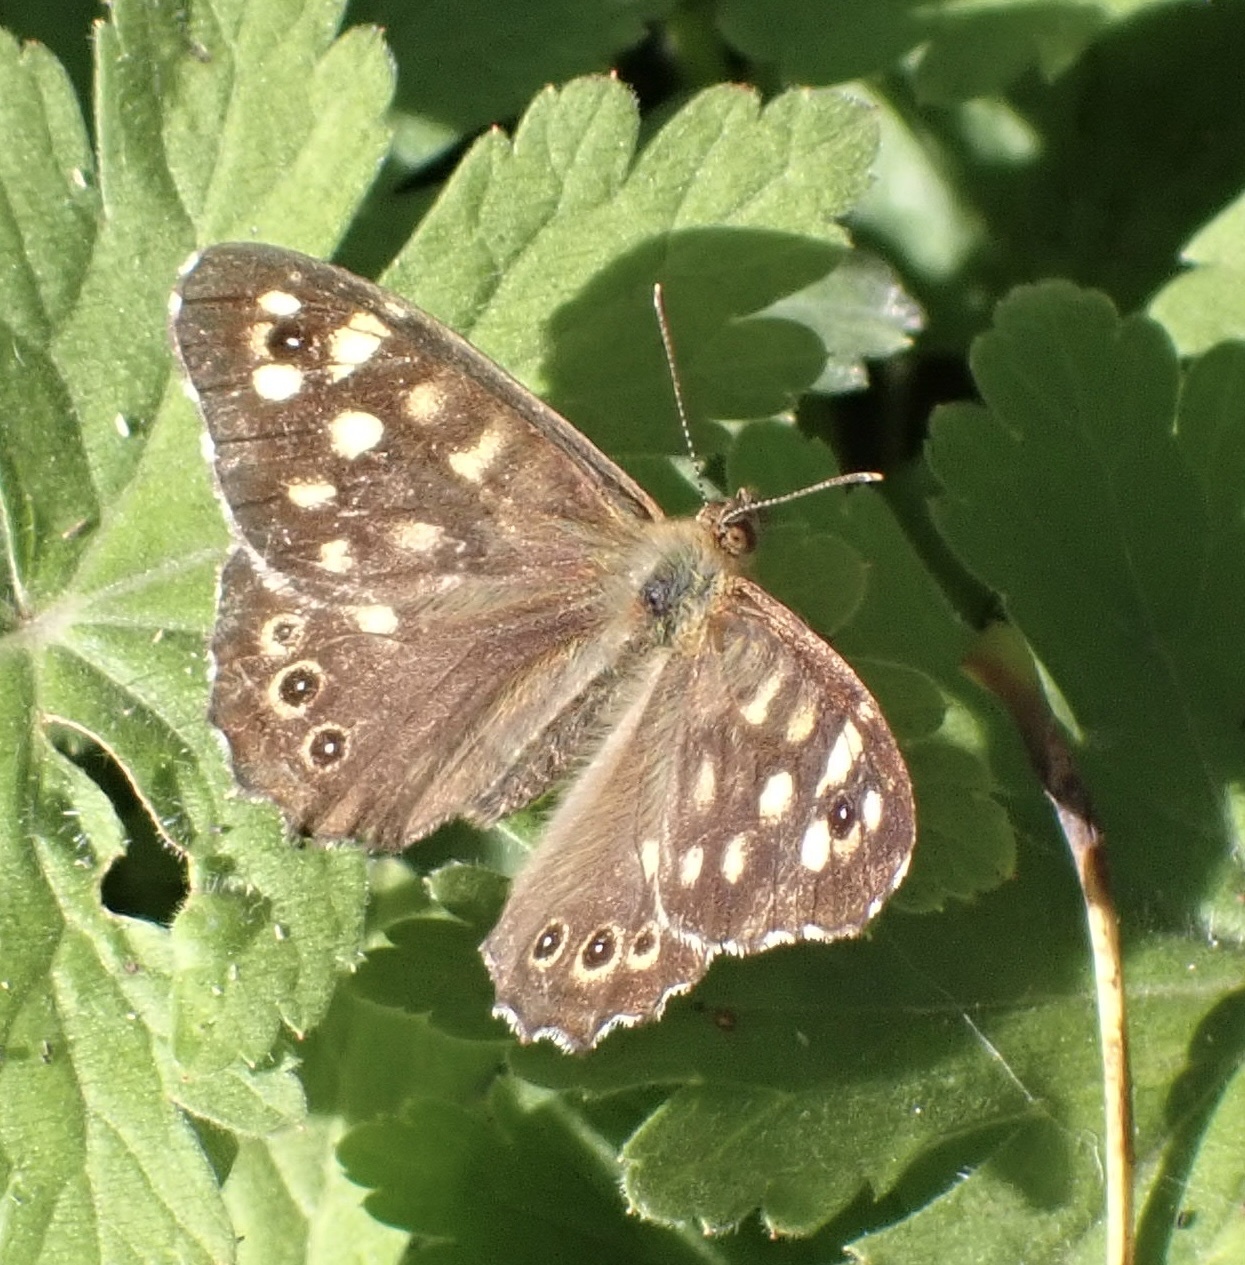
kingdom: Animalia
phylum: Arthropoda
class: Insecta
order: Lepidoptera
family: Nymphalidae
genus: Pararge
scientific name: Pararge aegeria
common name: Speckled wood
